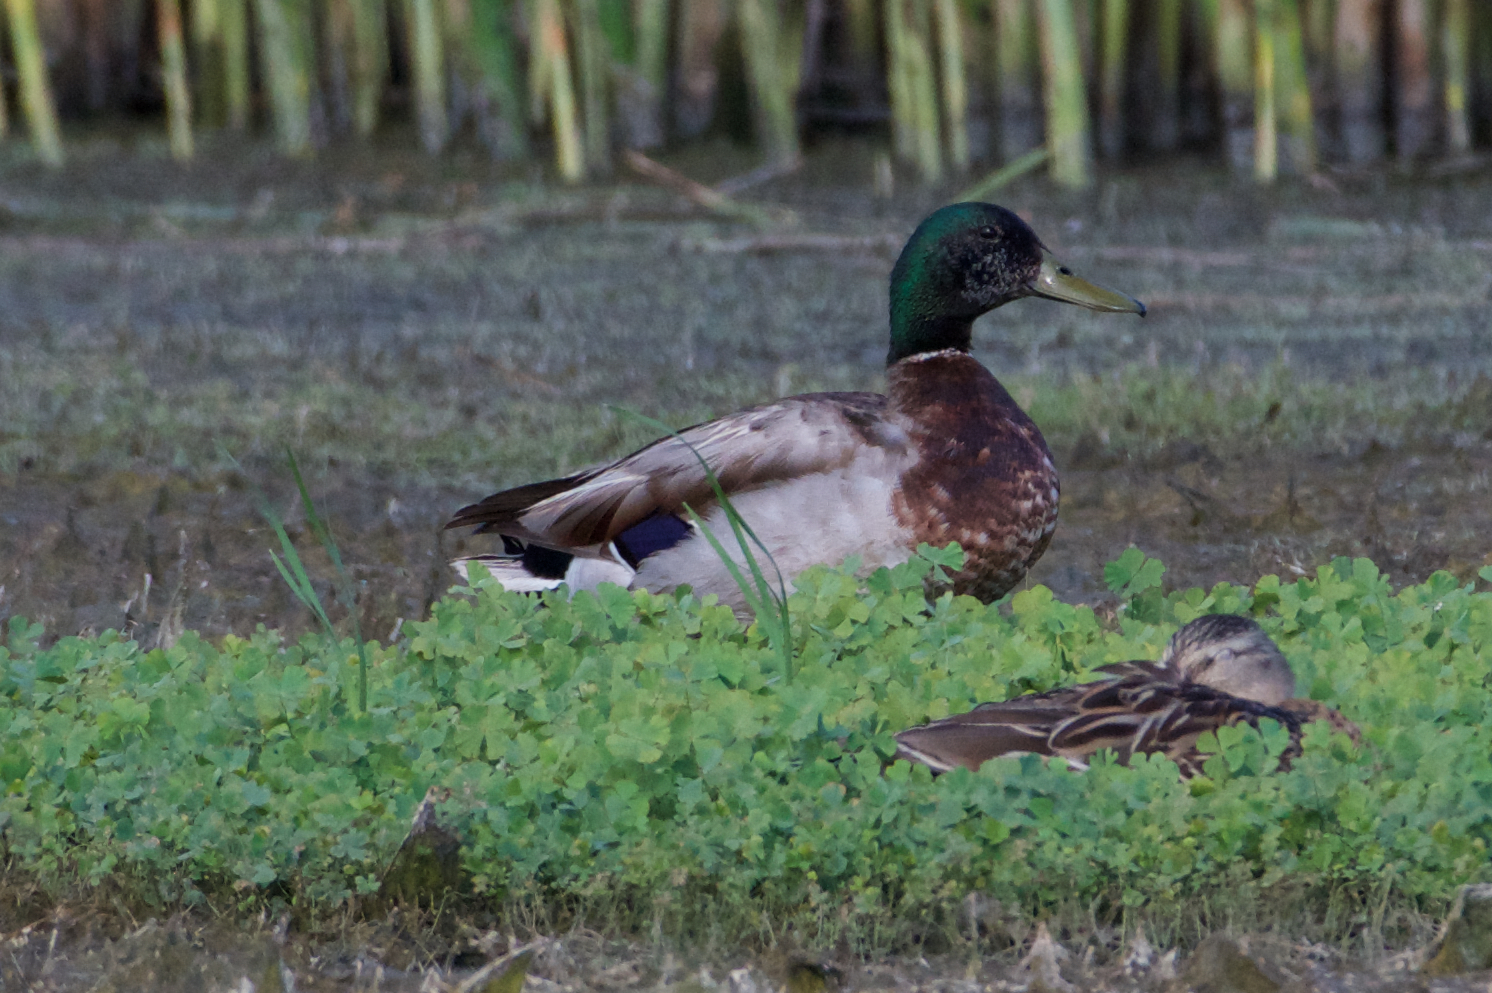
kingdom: Animalia
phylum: Chordata
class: Aves
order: Anseriformes
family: Anatidae
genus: Anas
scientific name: Anas platyrhynchos
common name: Mallard
